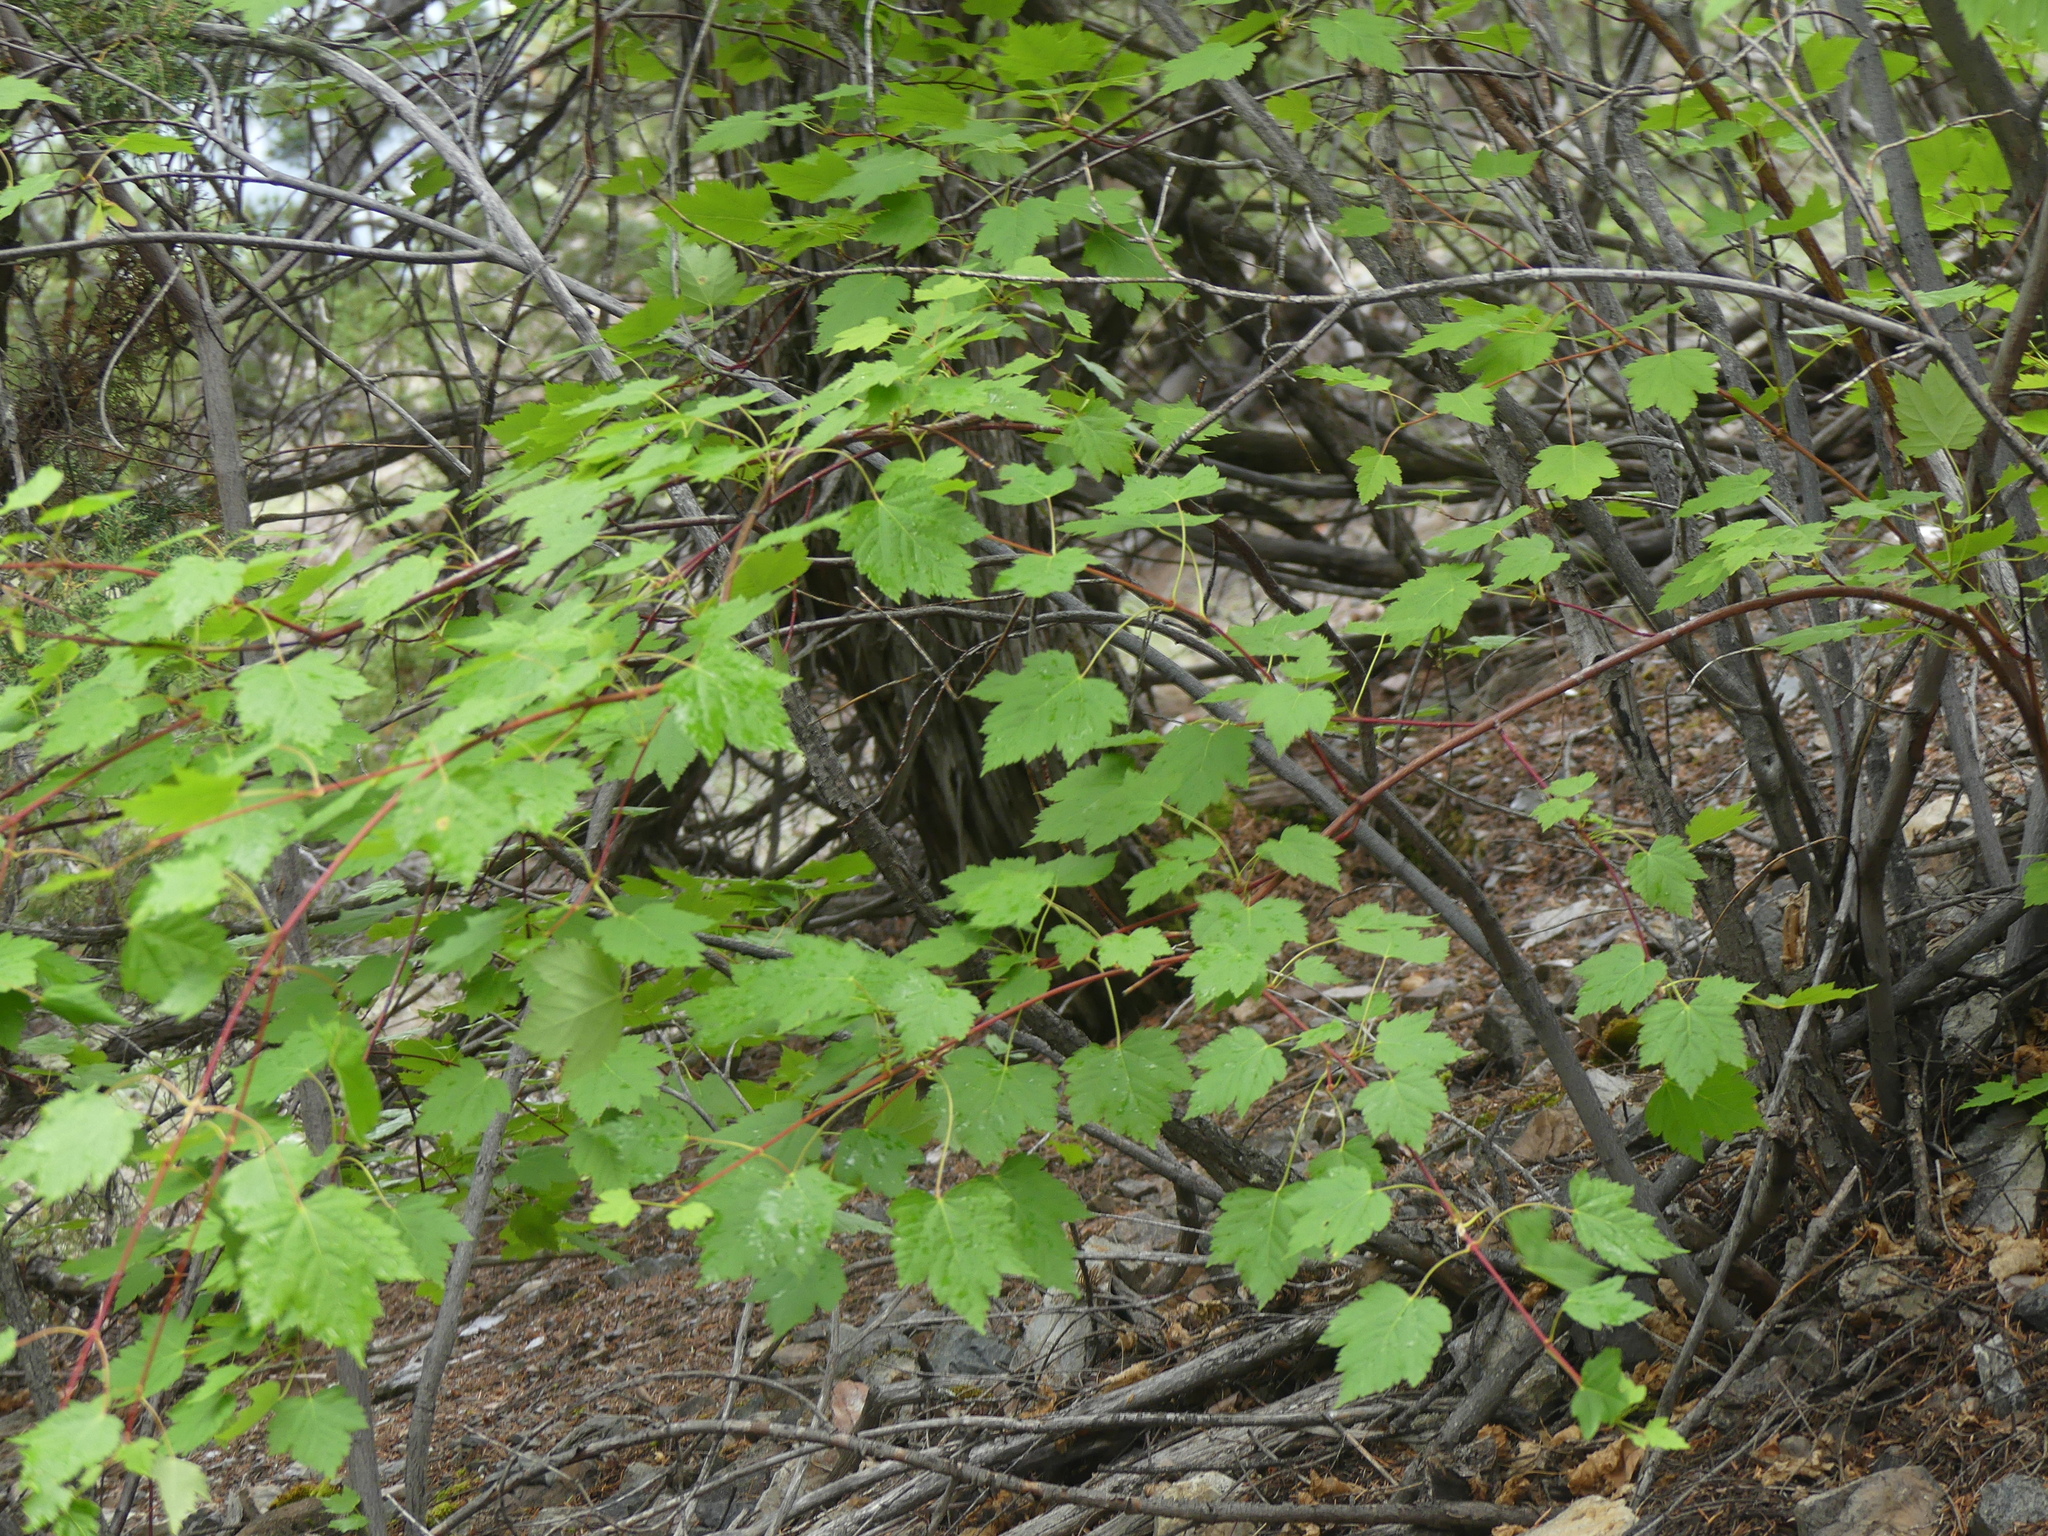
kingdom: Plantae
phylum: Tracheophyta
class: Magnoliopsida
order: Sapindales
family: Sapindaceae
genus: Acer
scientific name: Acer glabrum
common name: Rocky mountain maple
